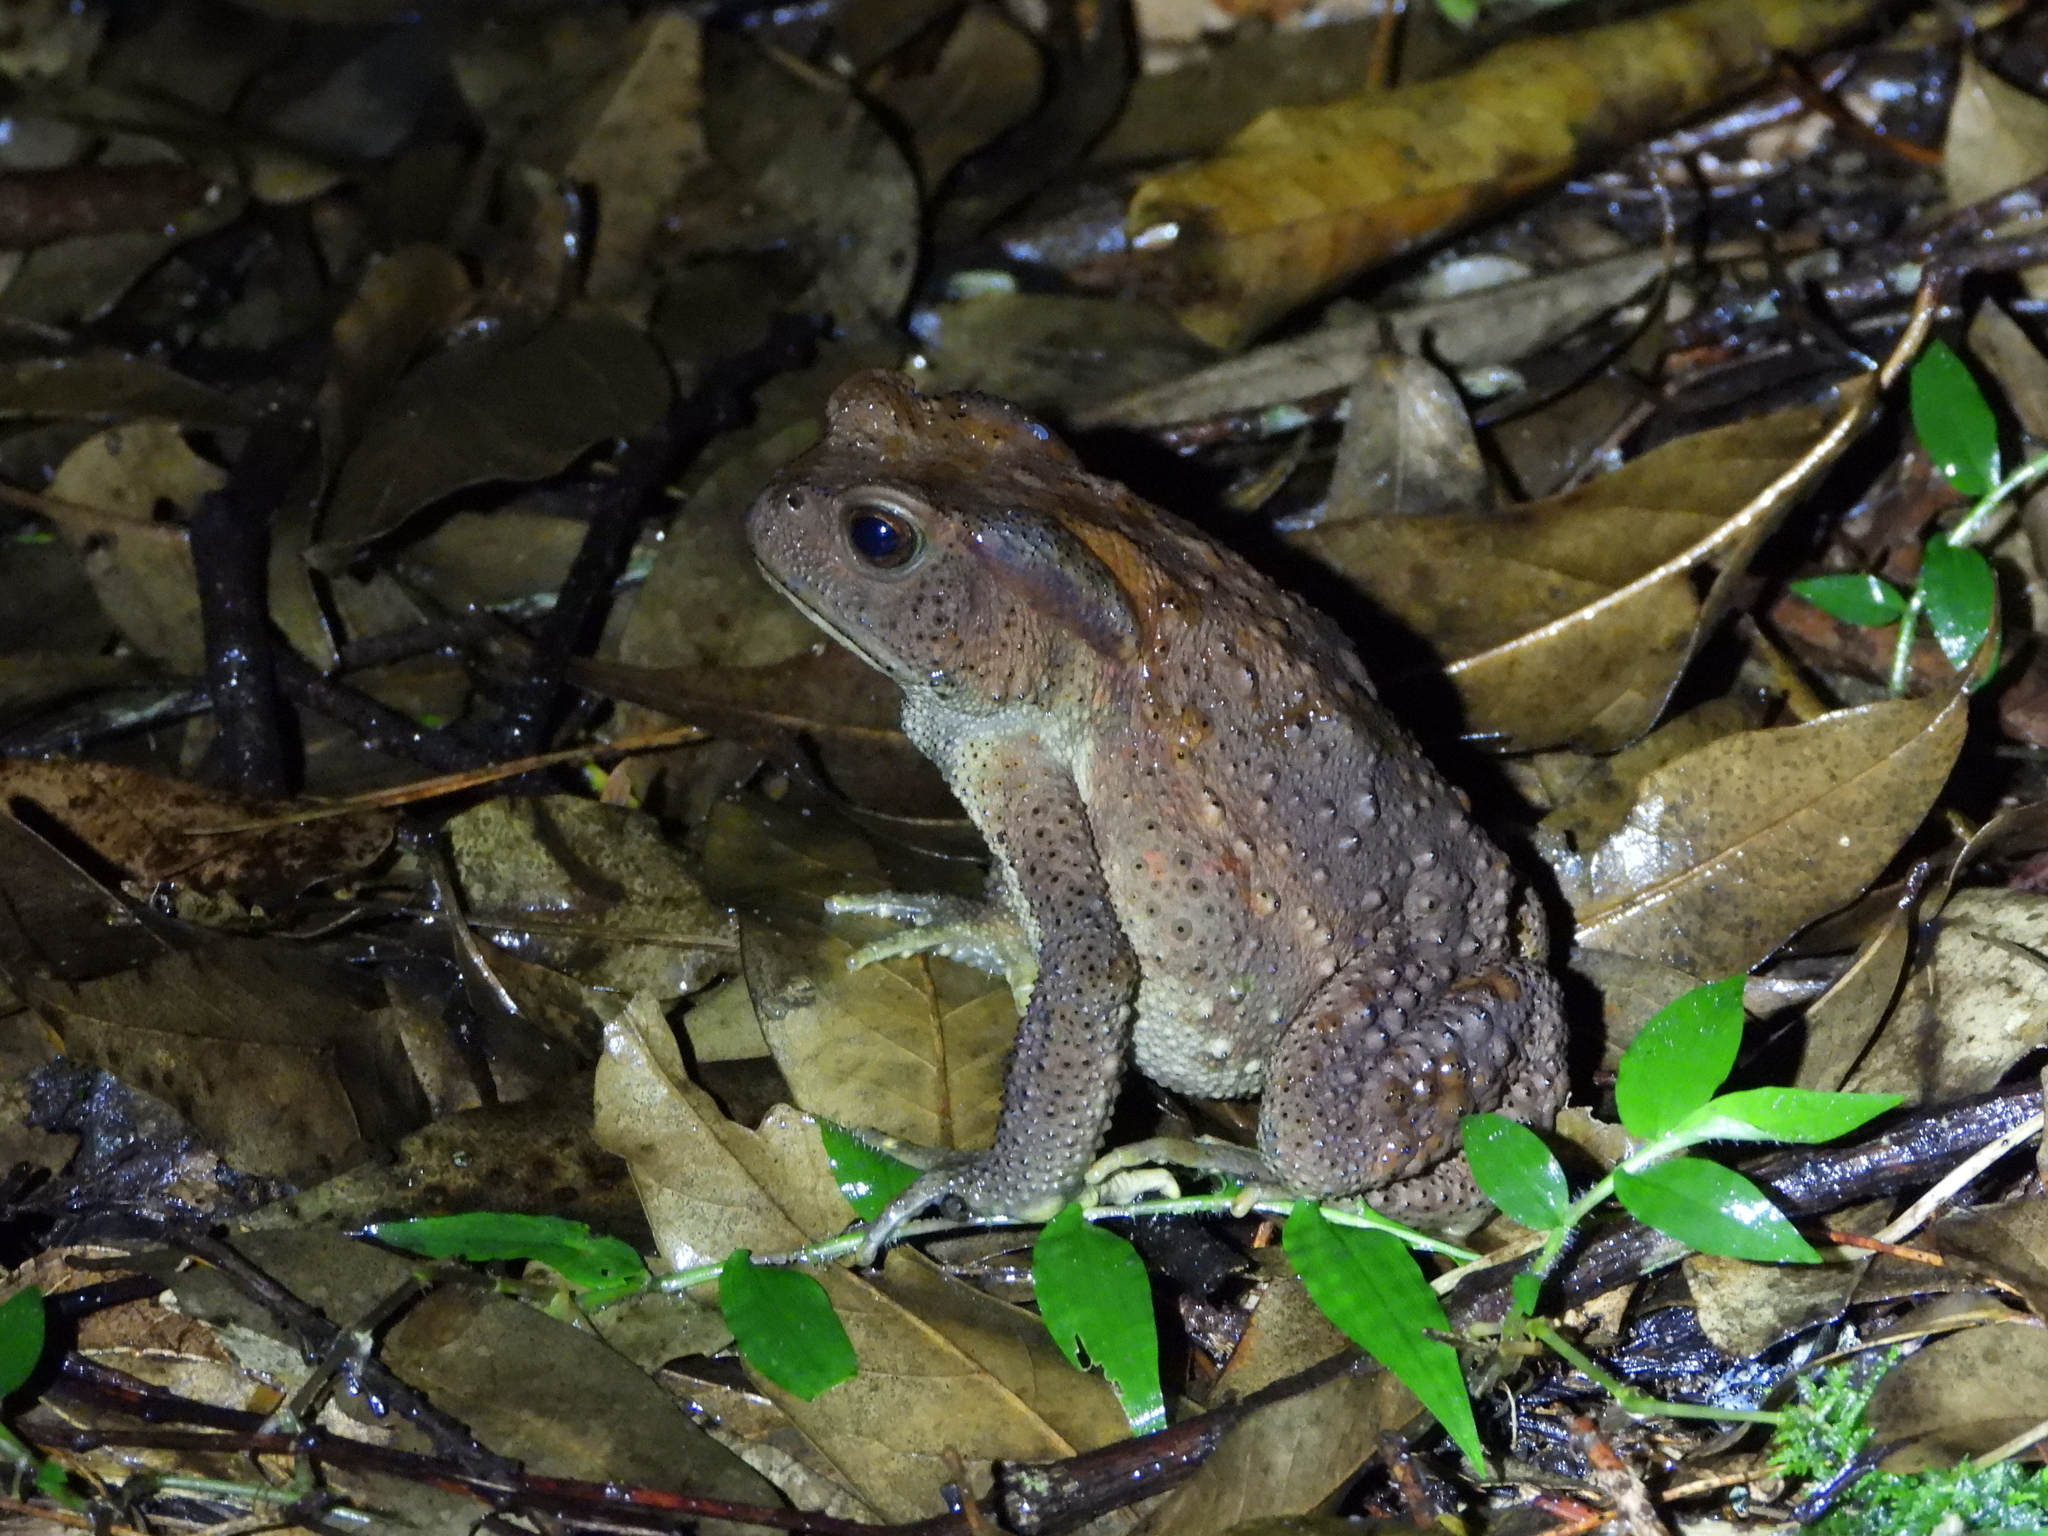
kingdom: Animalia
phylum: Chordata
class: Amphibia
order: Anura
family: Bufonidae
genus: Bufo
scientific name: Bufo bankorensis
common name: Bankor toad
